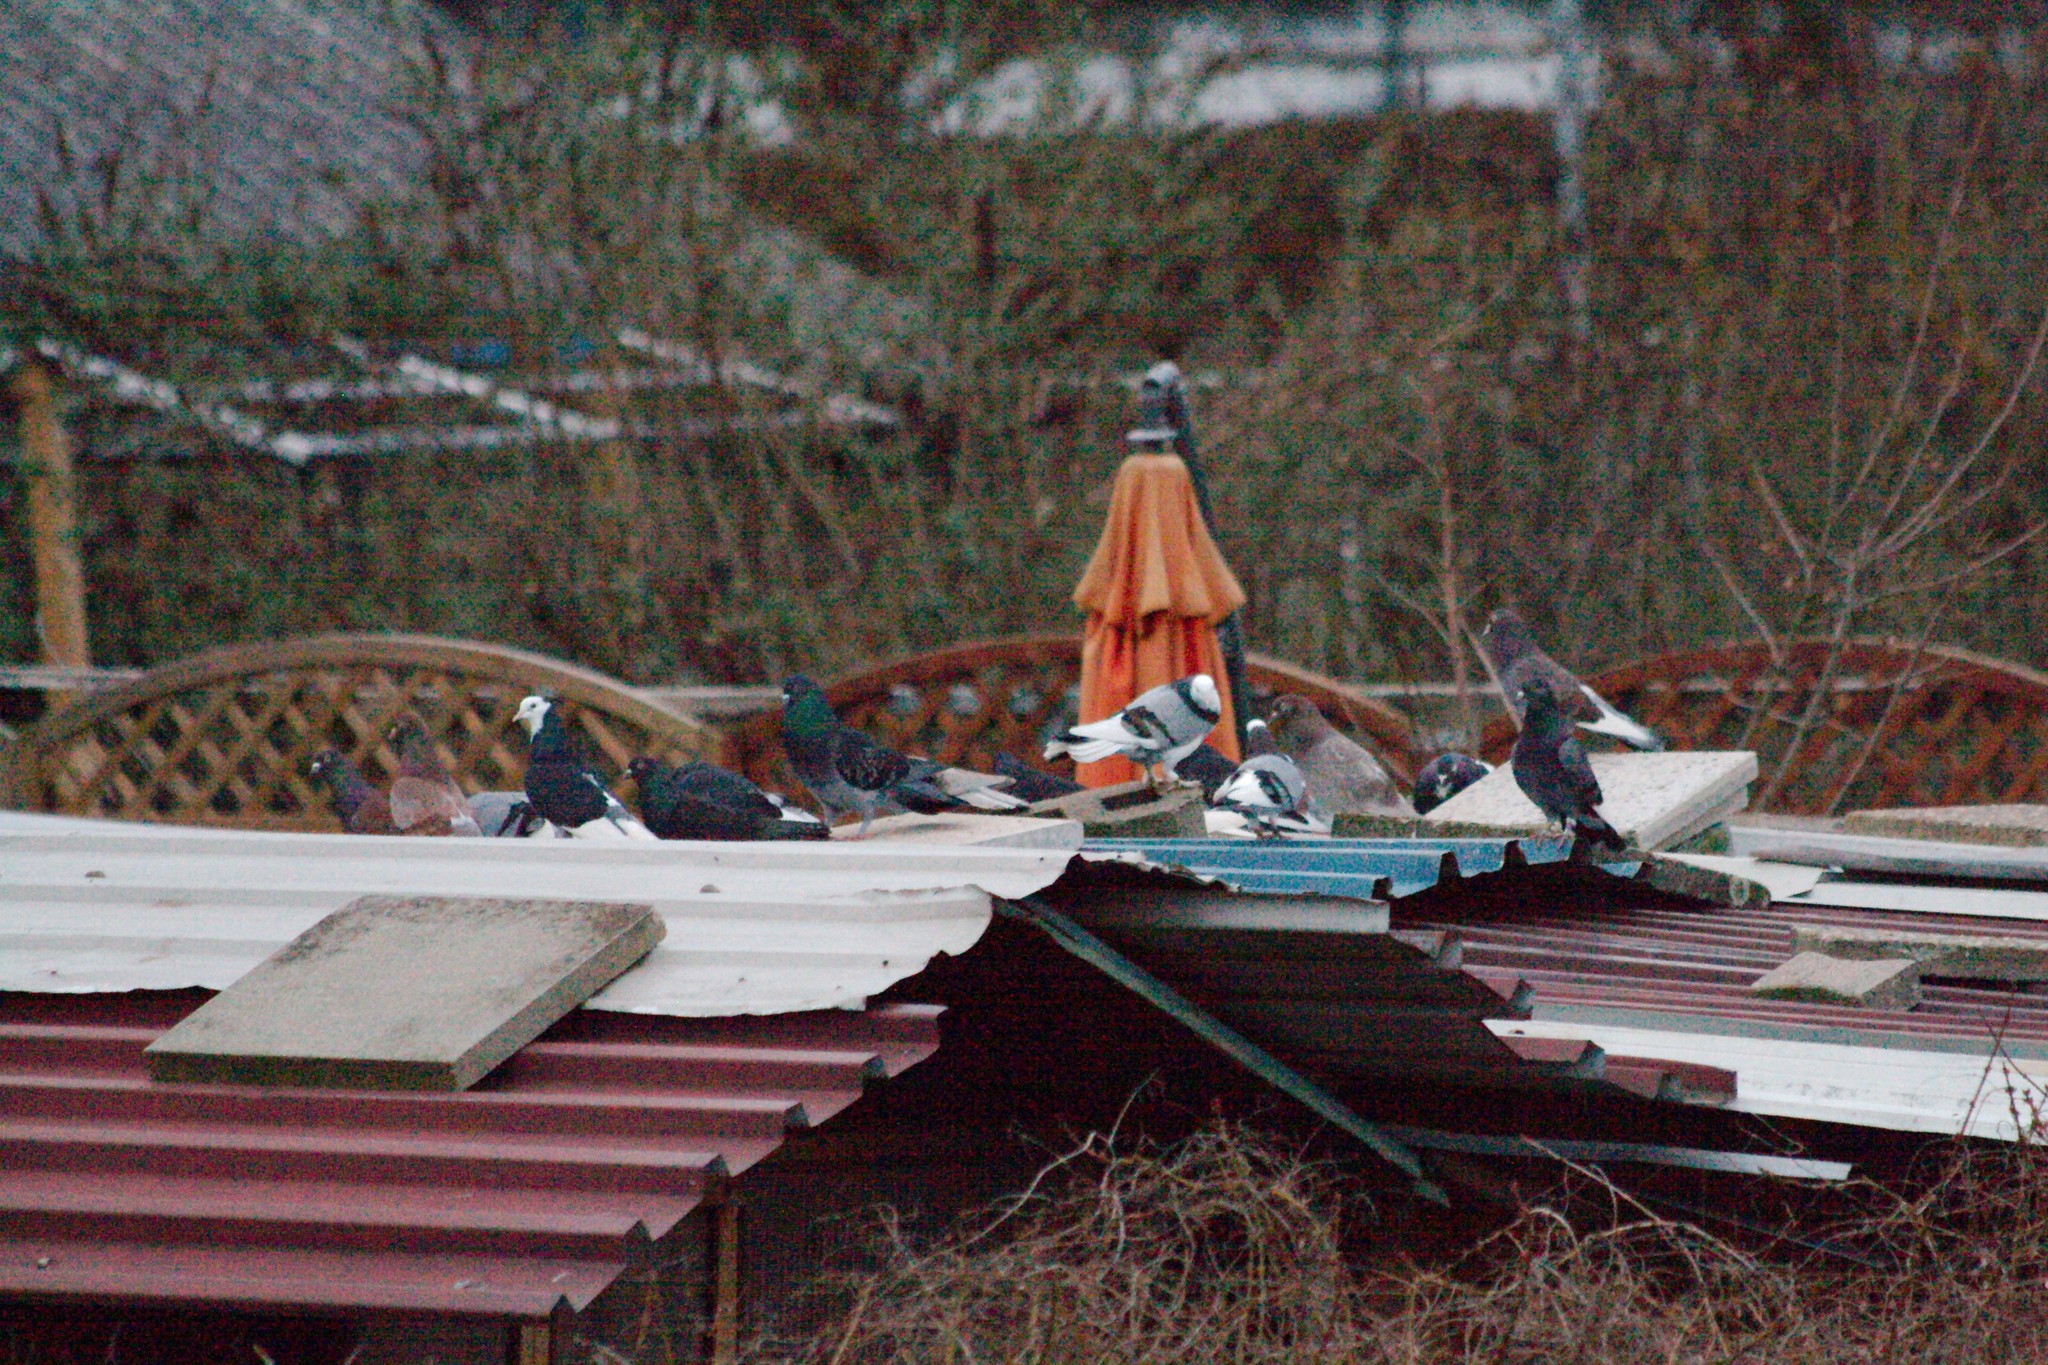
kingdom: Animalia
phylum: Chordata
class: Aves
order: Columbiformes
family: Columbidae
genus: Columba
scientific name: Columba livia
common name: Rock pigeon
